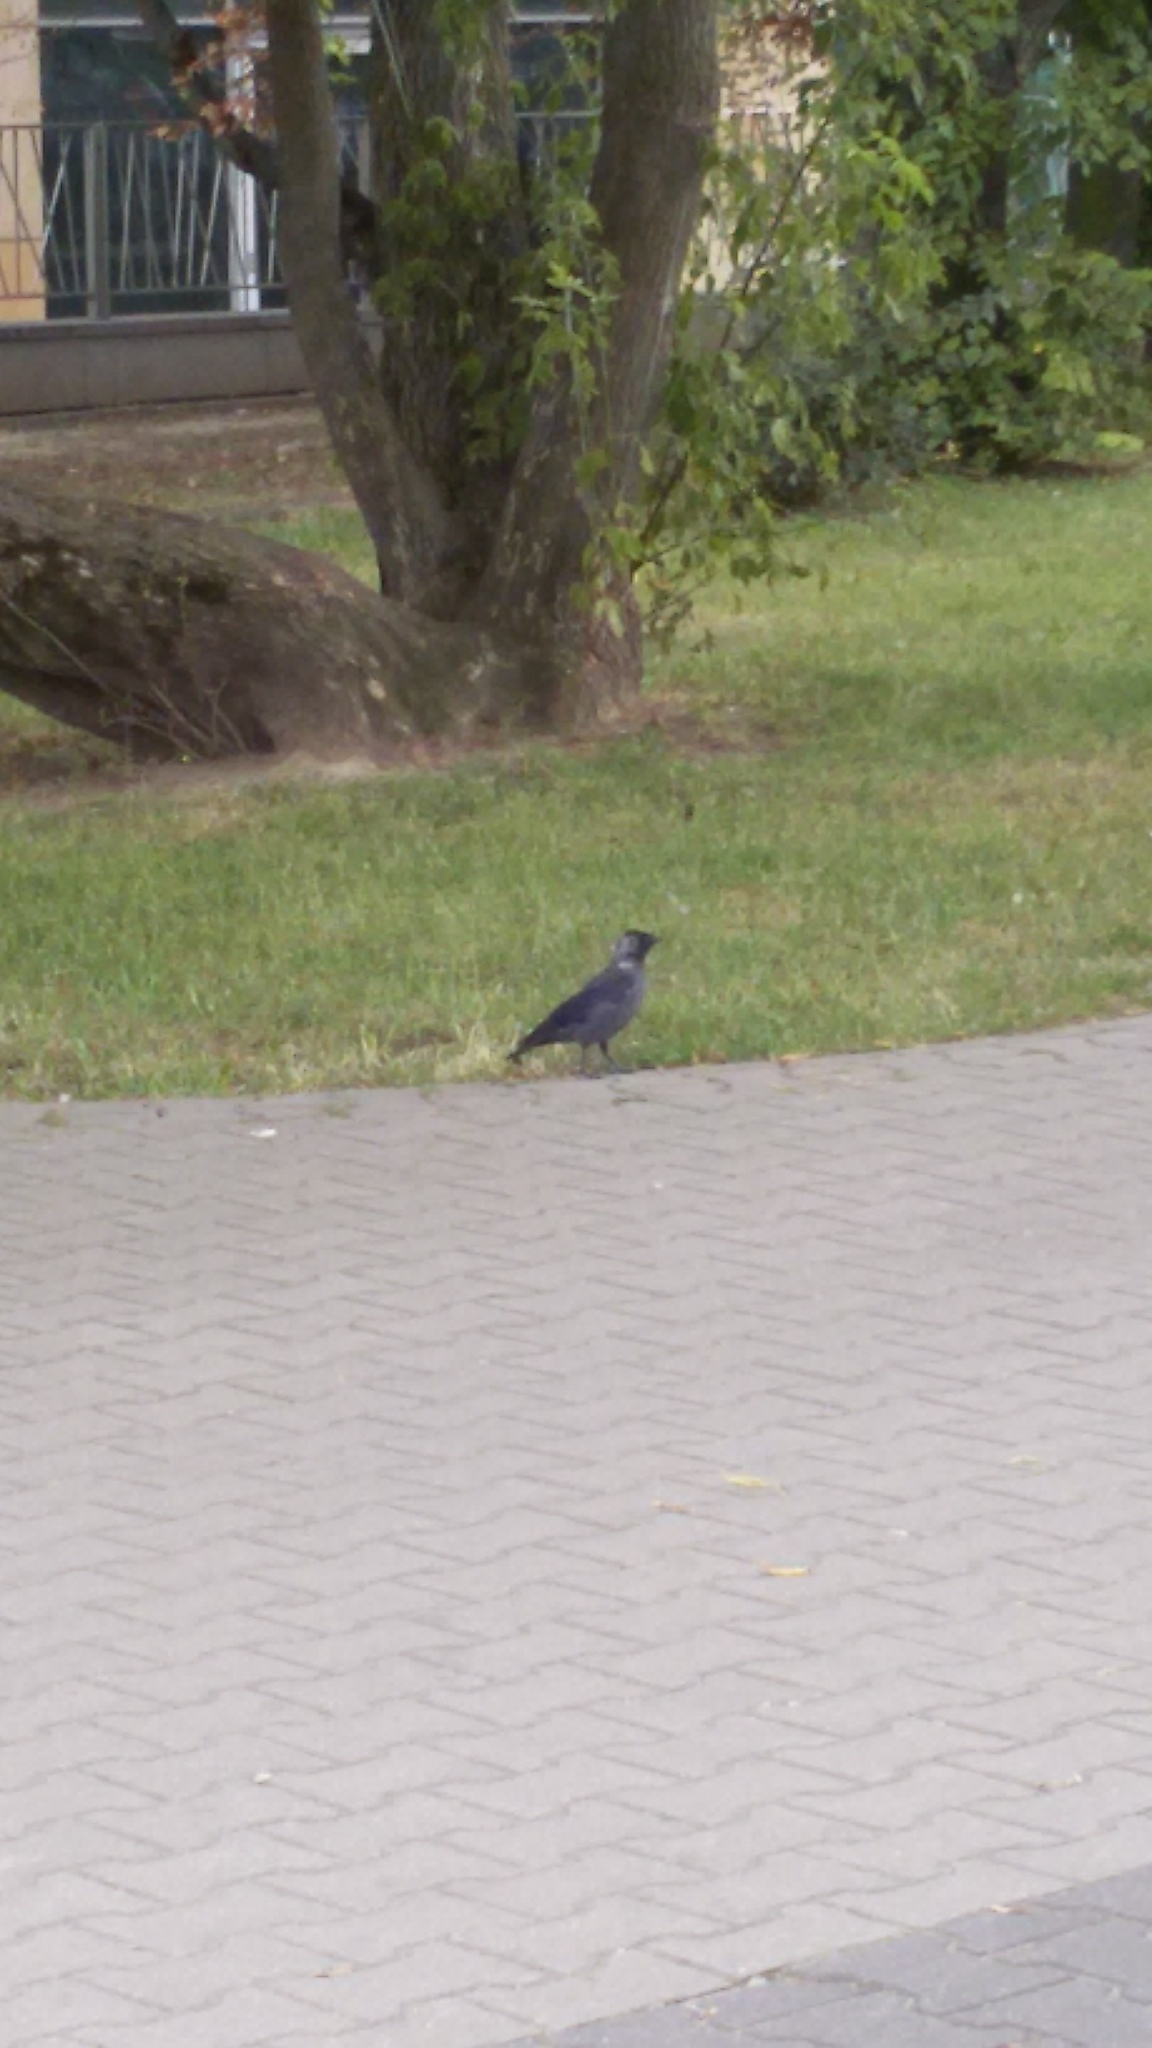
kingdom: Animalia
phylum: Chordata
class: Aves
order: Passeriformes
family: Corvidae
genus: Coloeus
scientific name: Coloeus monedula
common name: Western jackdaw
